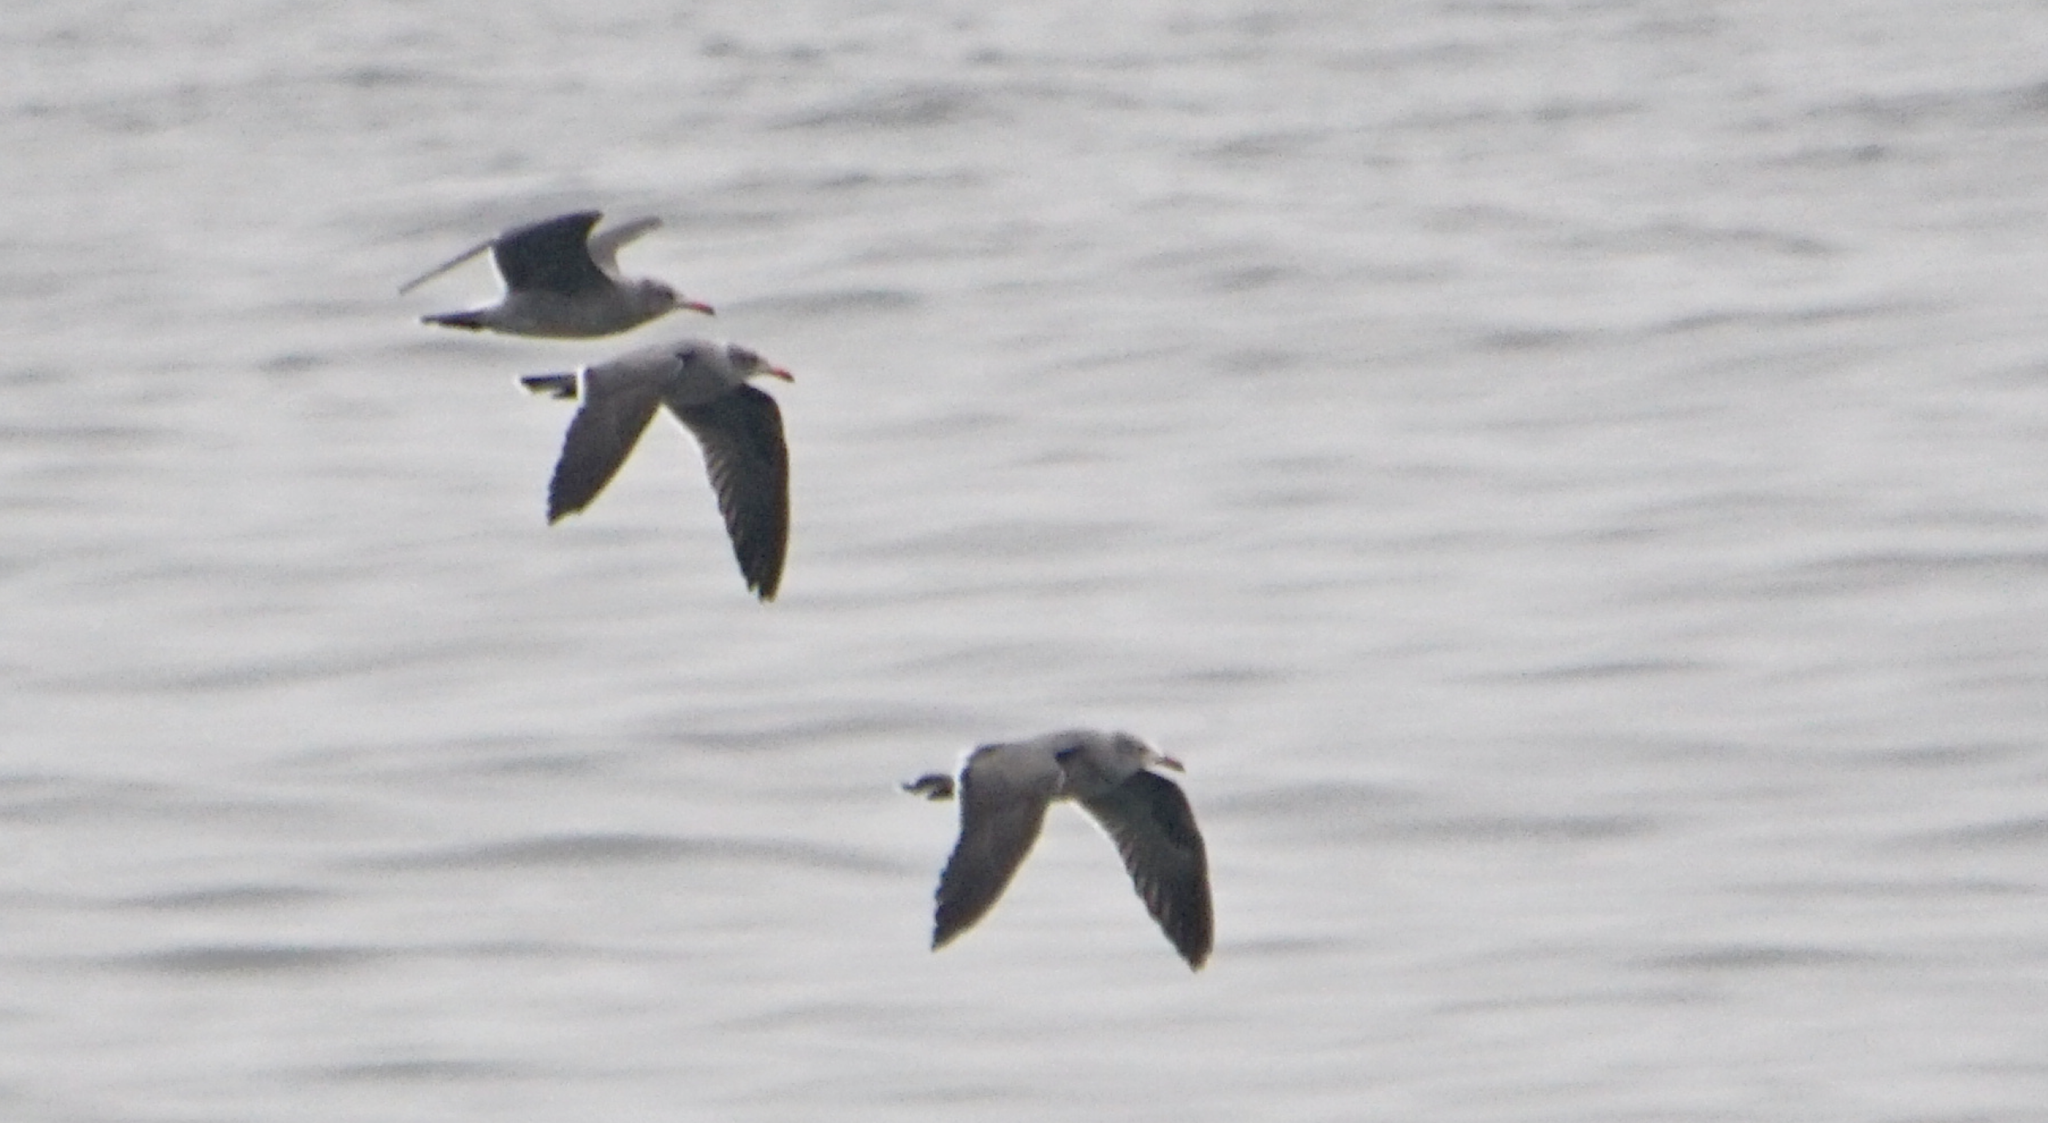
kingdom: Animalia
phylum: Chordata
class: Aves
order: Charadriiformes
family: Laridae
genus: Larus
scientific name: Larus heermanni
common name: Heermann's gull
